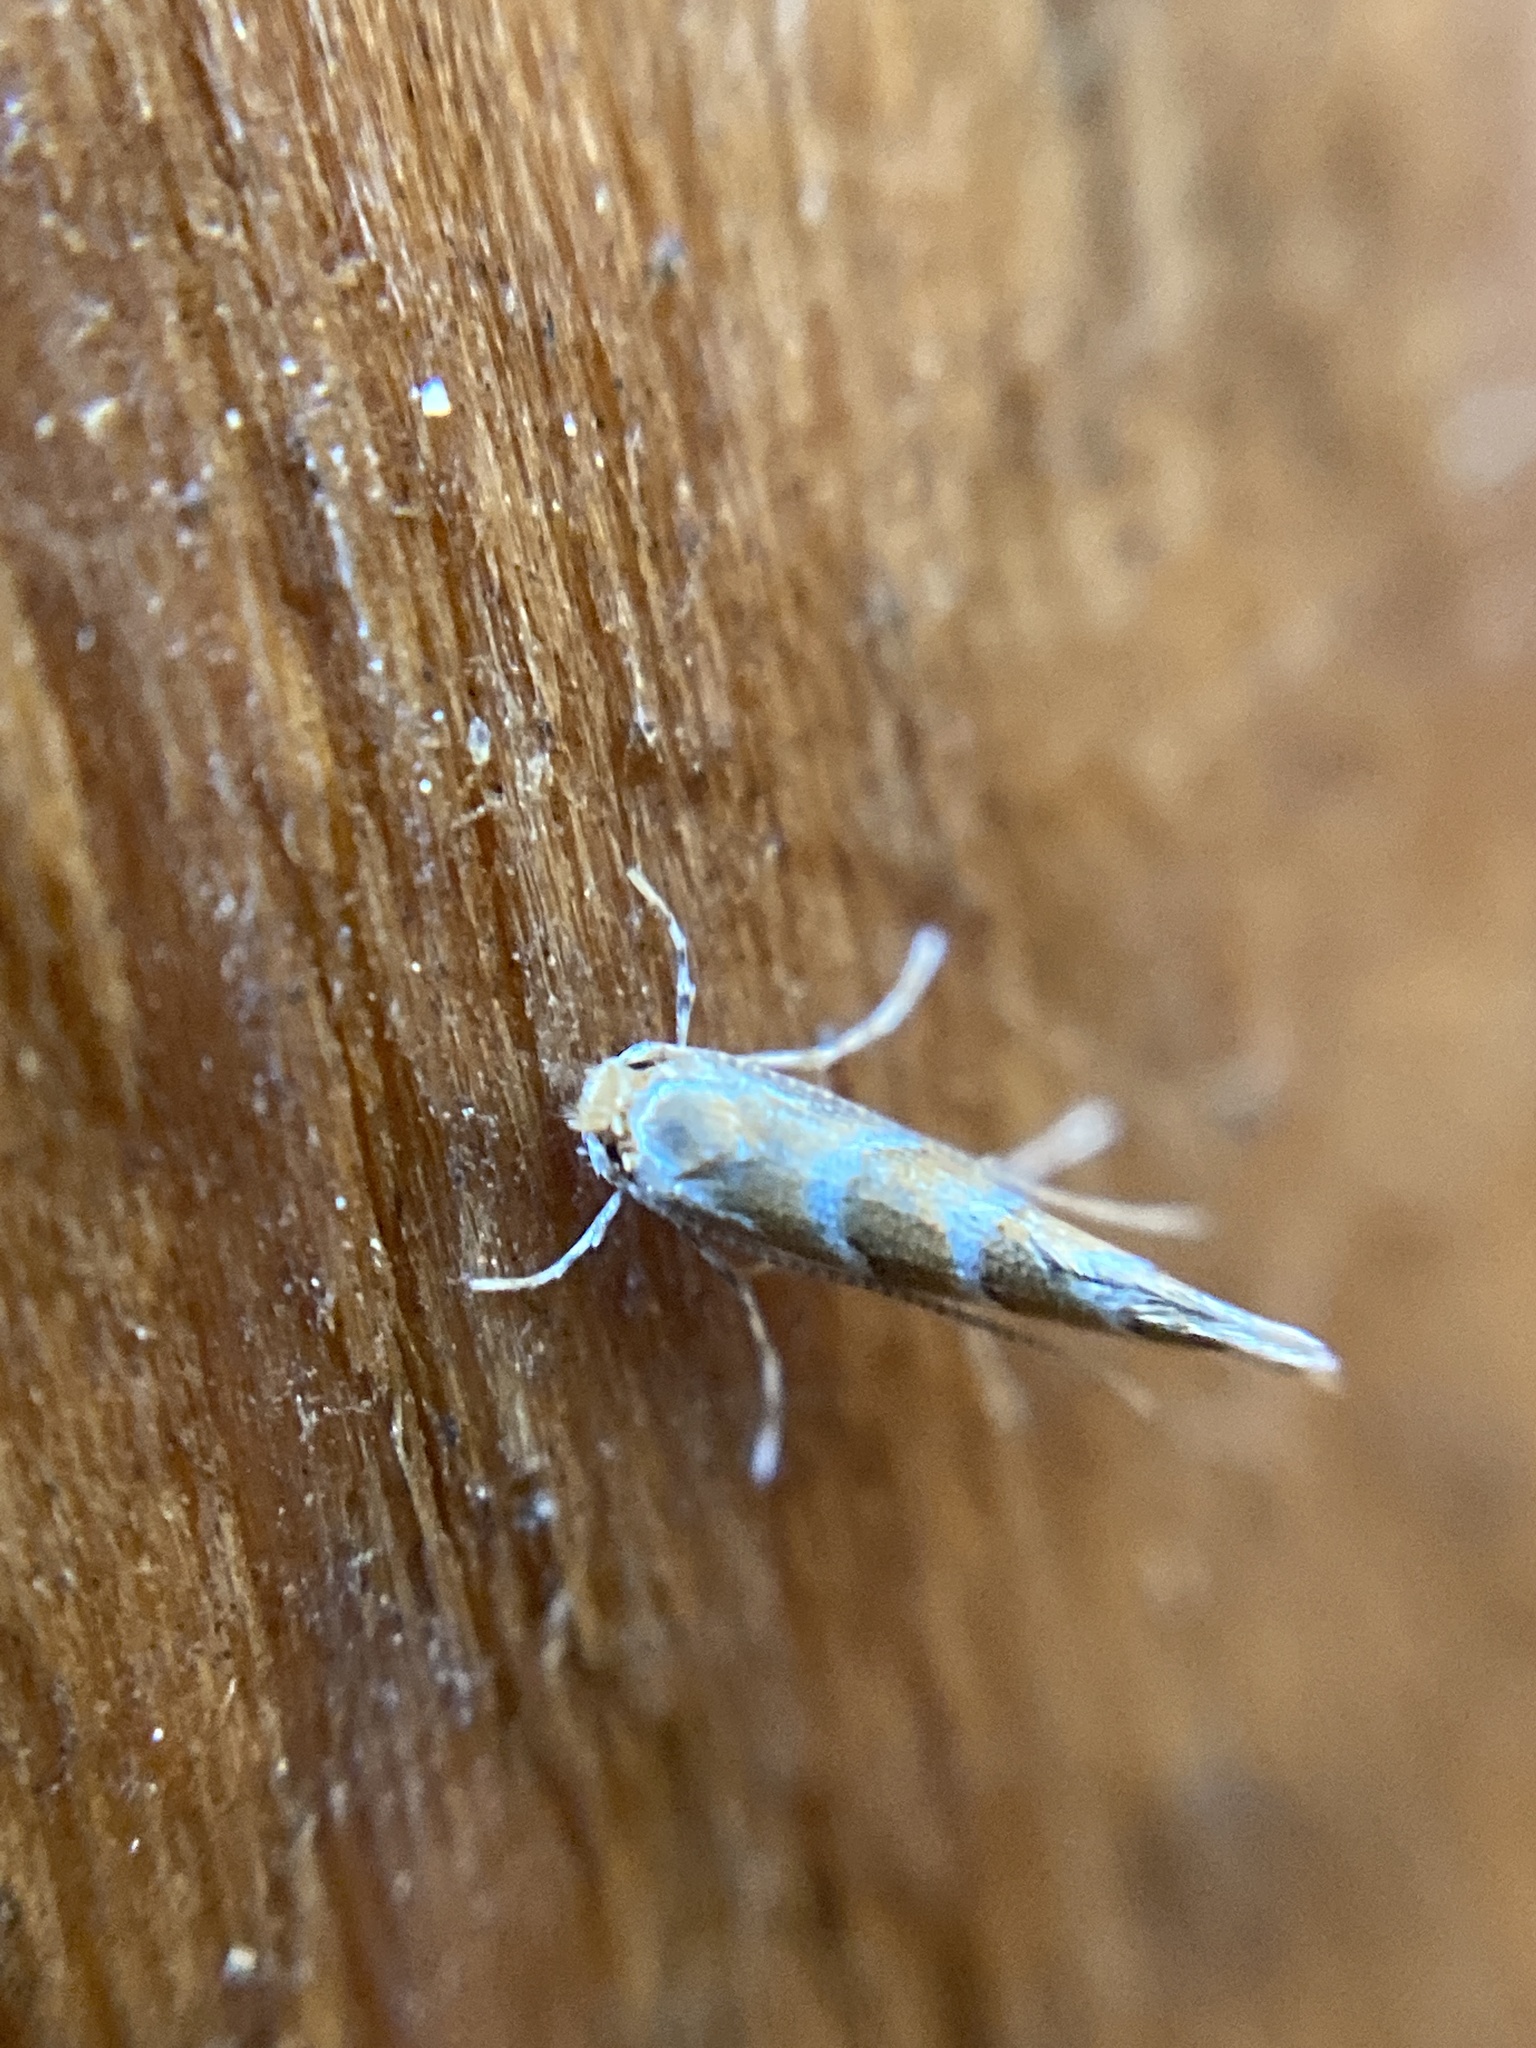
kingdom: Animalia
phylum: Arthropoda
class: Insecta
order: Lepidoptera
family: Gracillariidae
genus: Cameraria
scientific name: Cameraria ohridella
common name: Horse-chestnut leaf-miner
